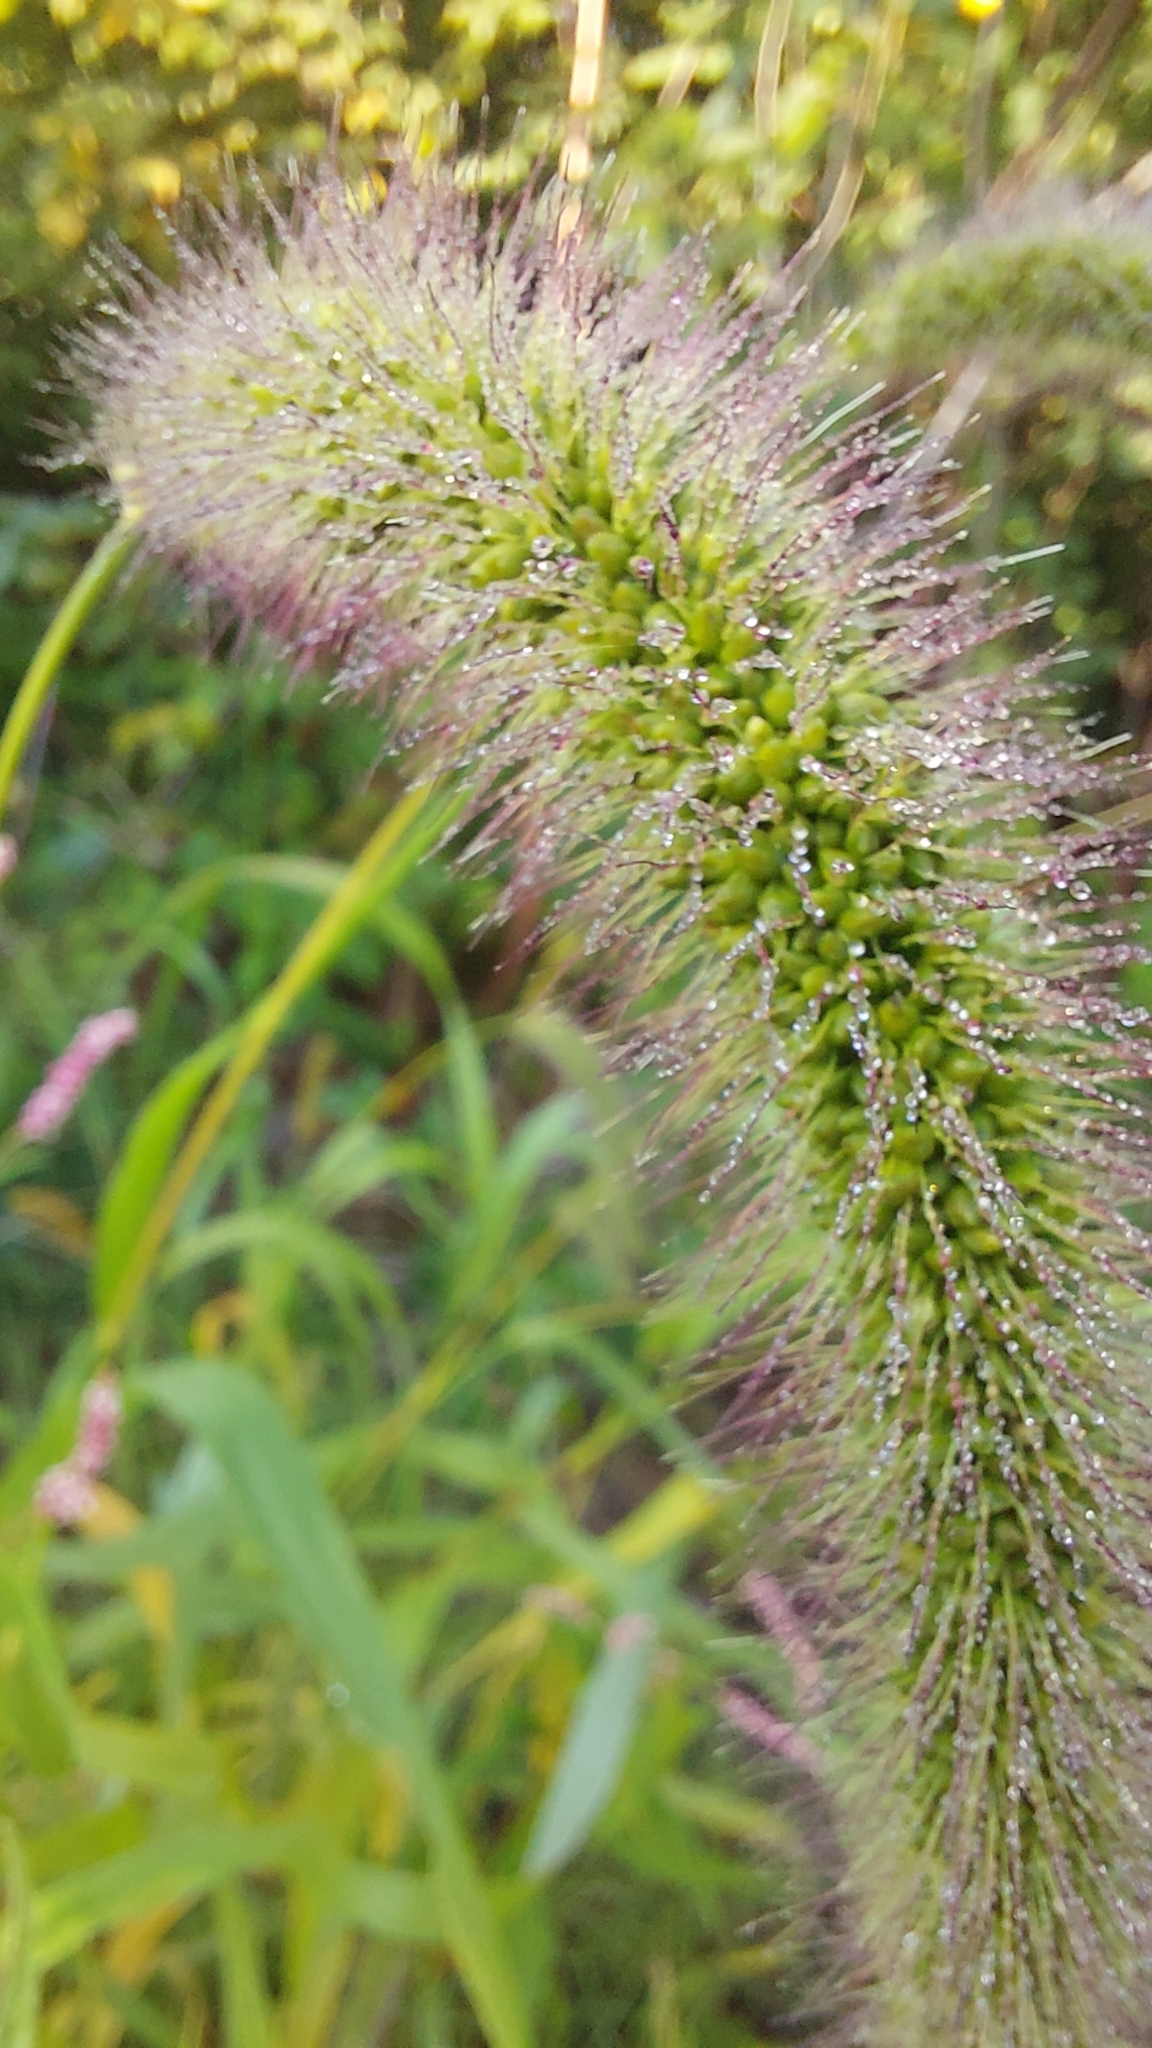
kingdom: Plantae
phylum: Tracheophyta
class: Liliopsida
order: Poales
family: Poaceae
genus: Setaria
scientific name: Setaria faberi
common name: Nodding bristle-grass
